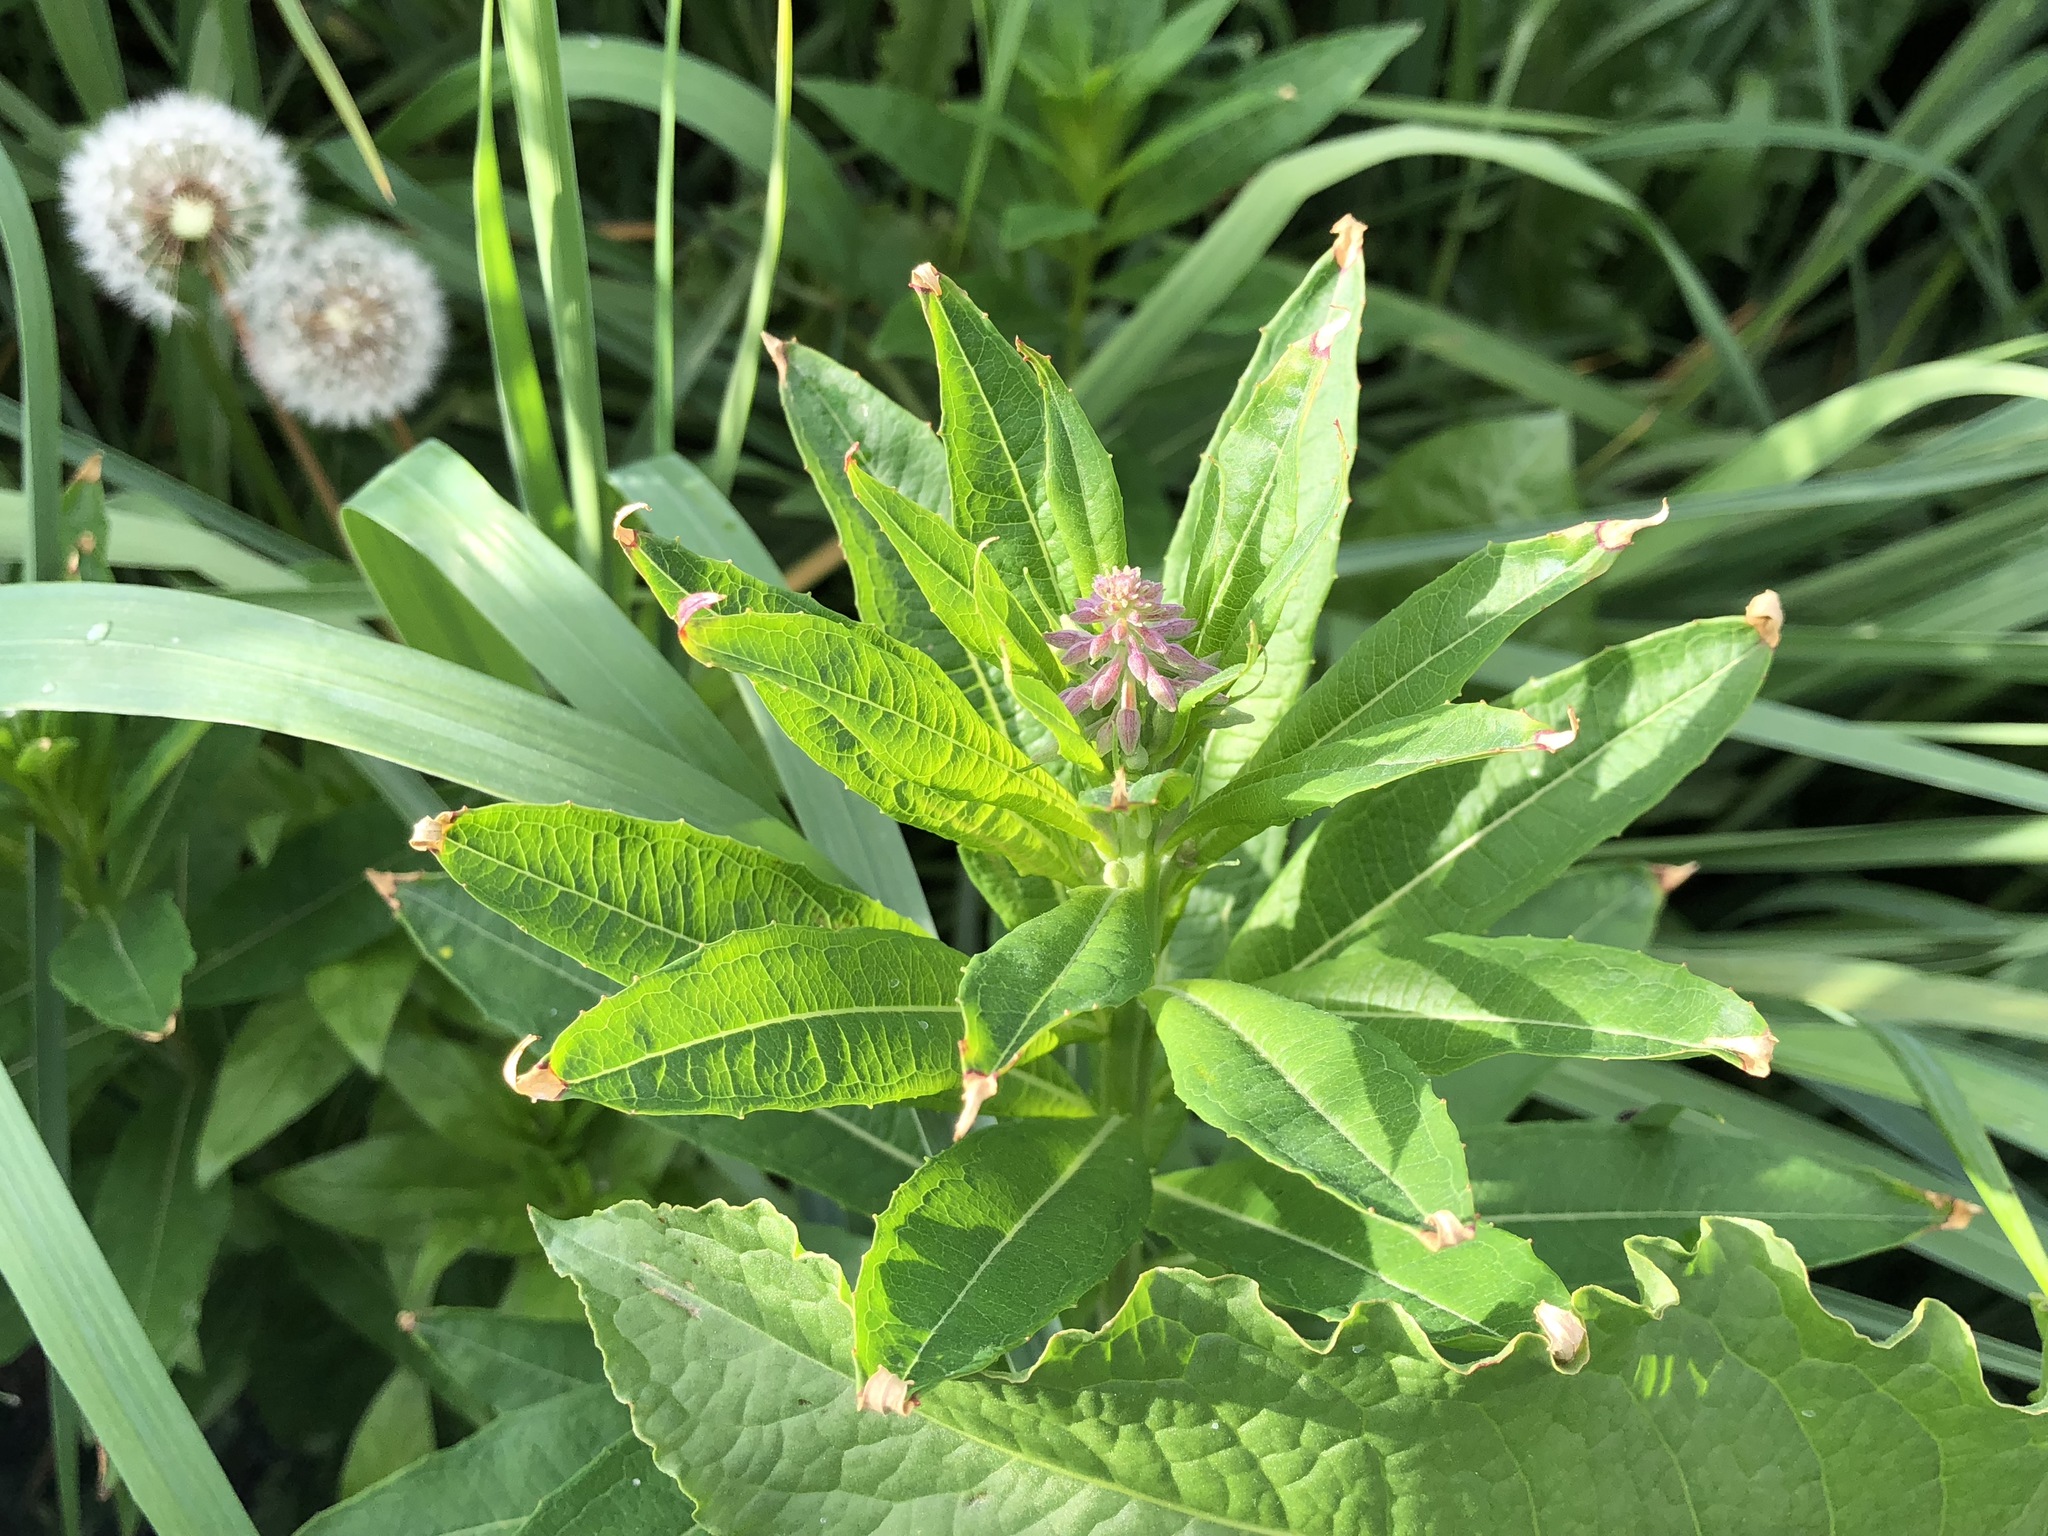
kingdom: Plantae
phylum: Tracheophyta
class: Magnoliopsida
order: Myrtales
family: Onagraceae
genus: Chamaenerion
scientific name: Chamaenerion angustifolium
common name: Fireweed
